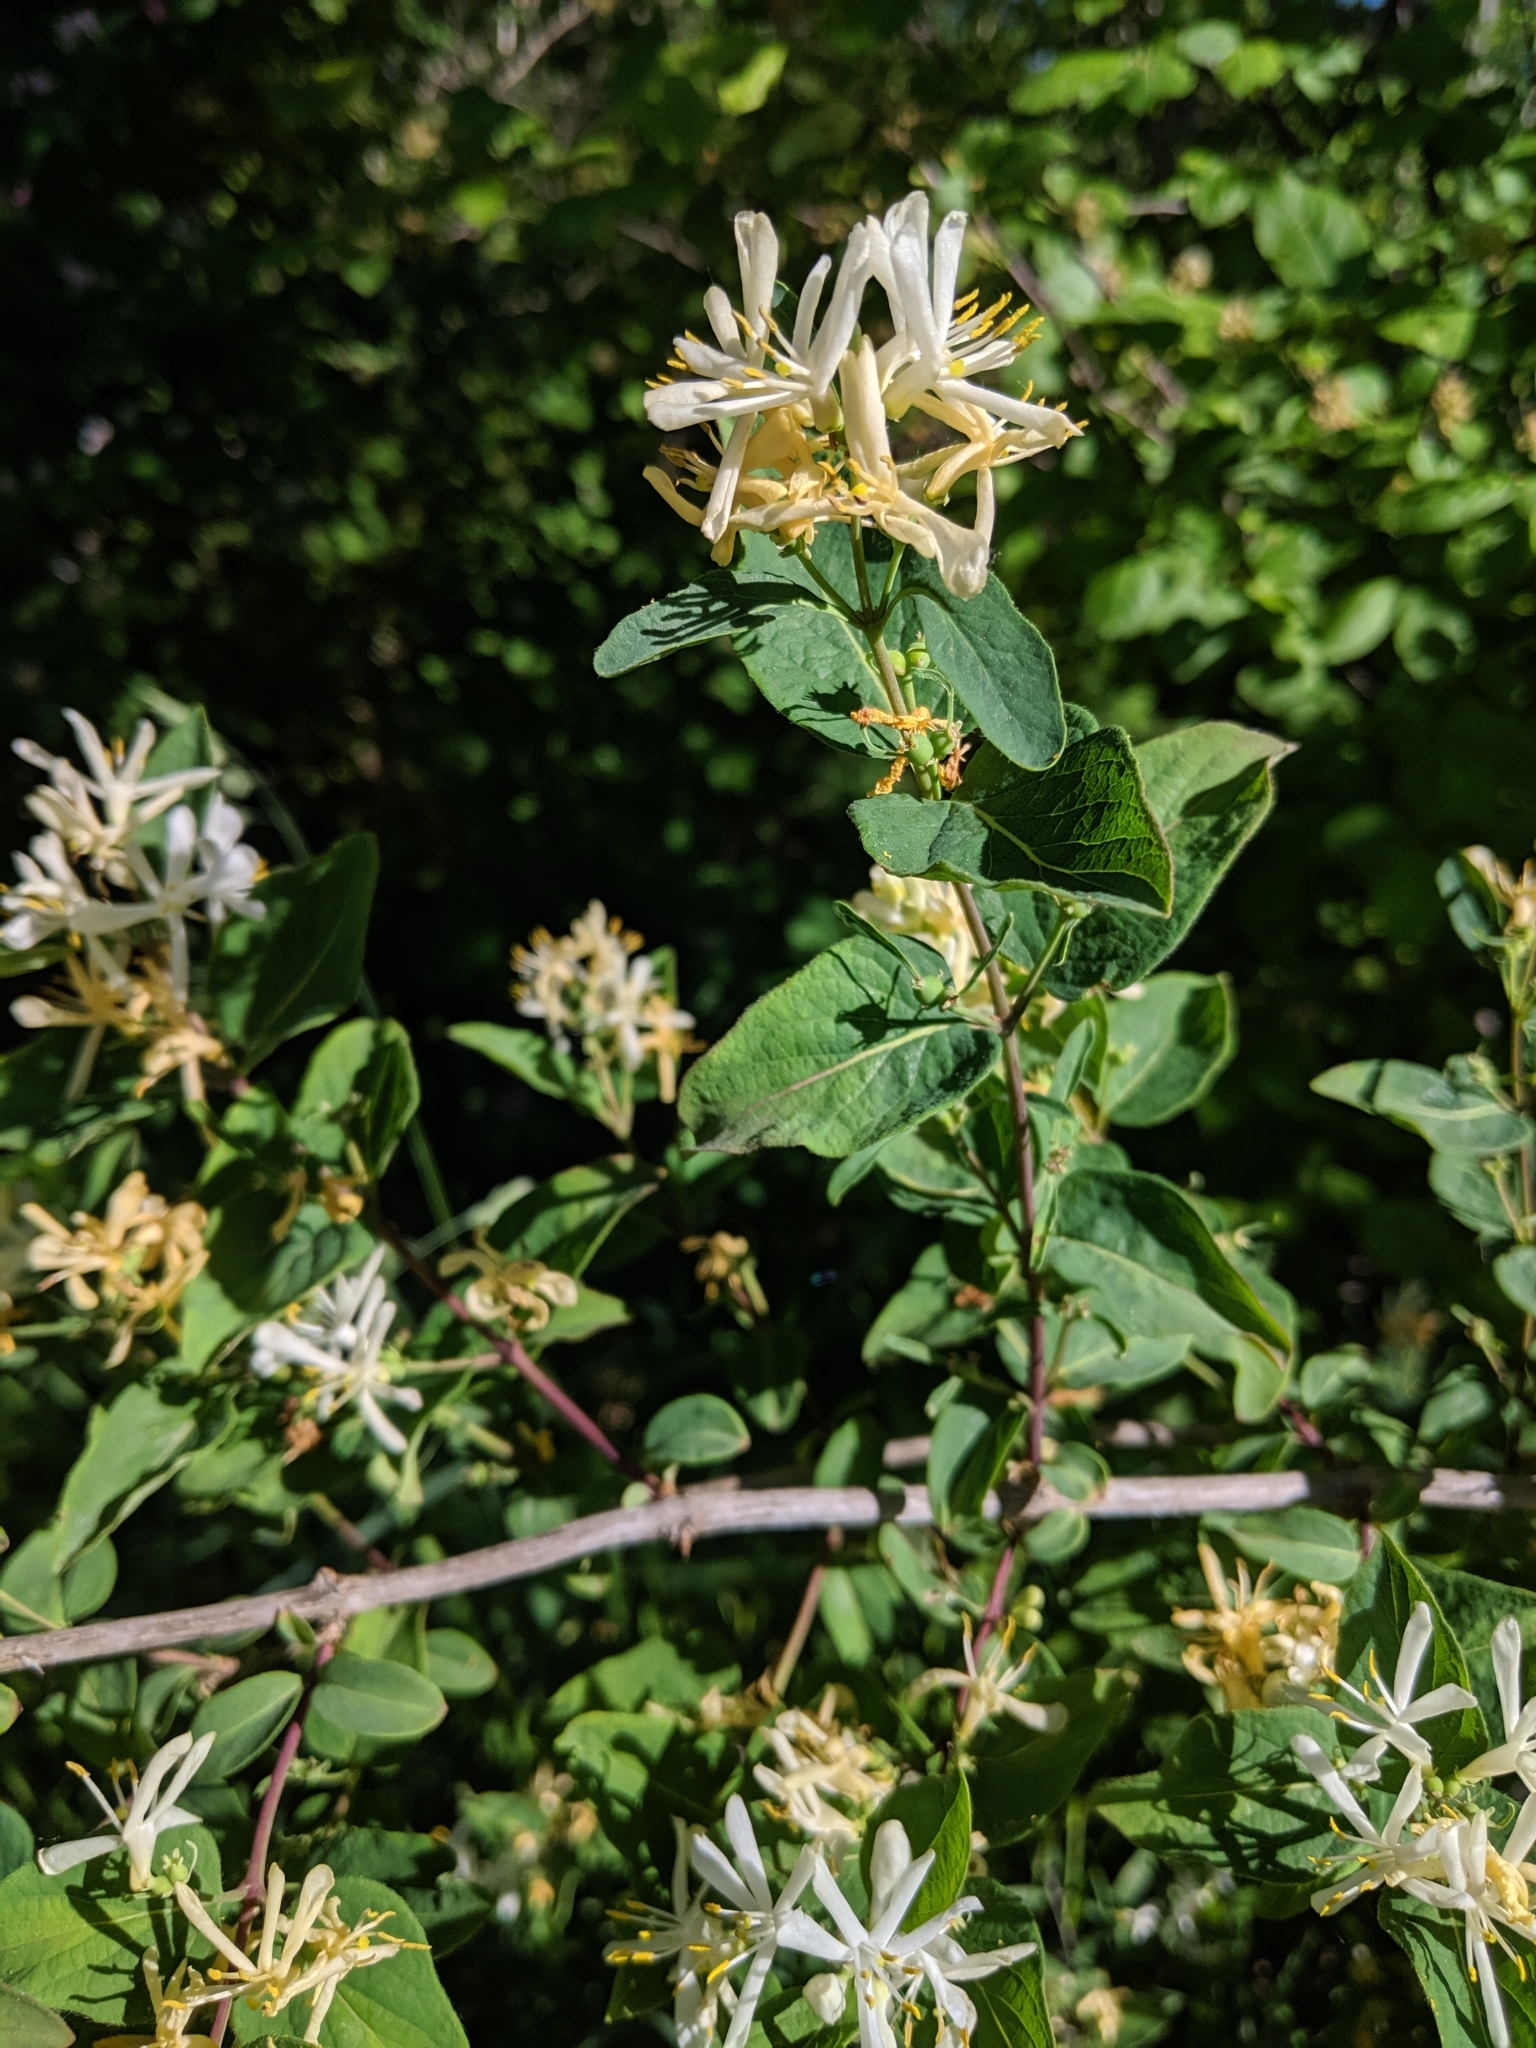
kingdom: Plantae
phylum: Tracheophyta
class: Magnoliopsida
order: Dipsacales
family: Caprifoliaceae
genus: Lonicera
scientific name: Lonicera bella
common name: Bell's honeysuckle
